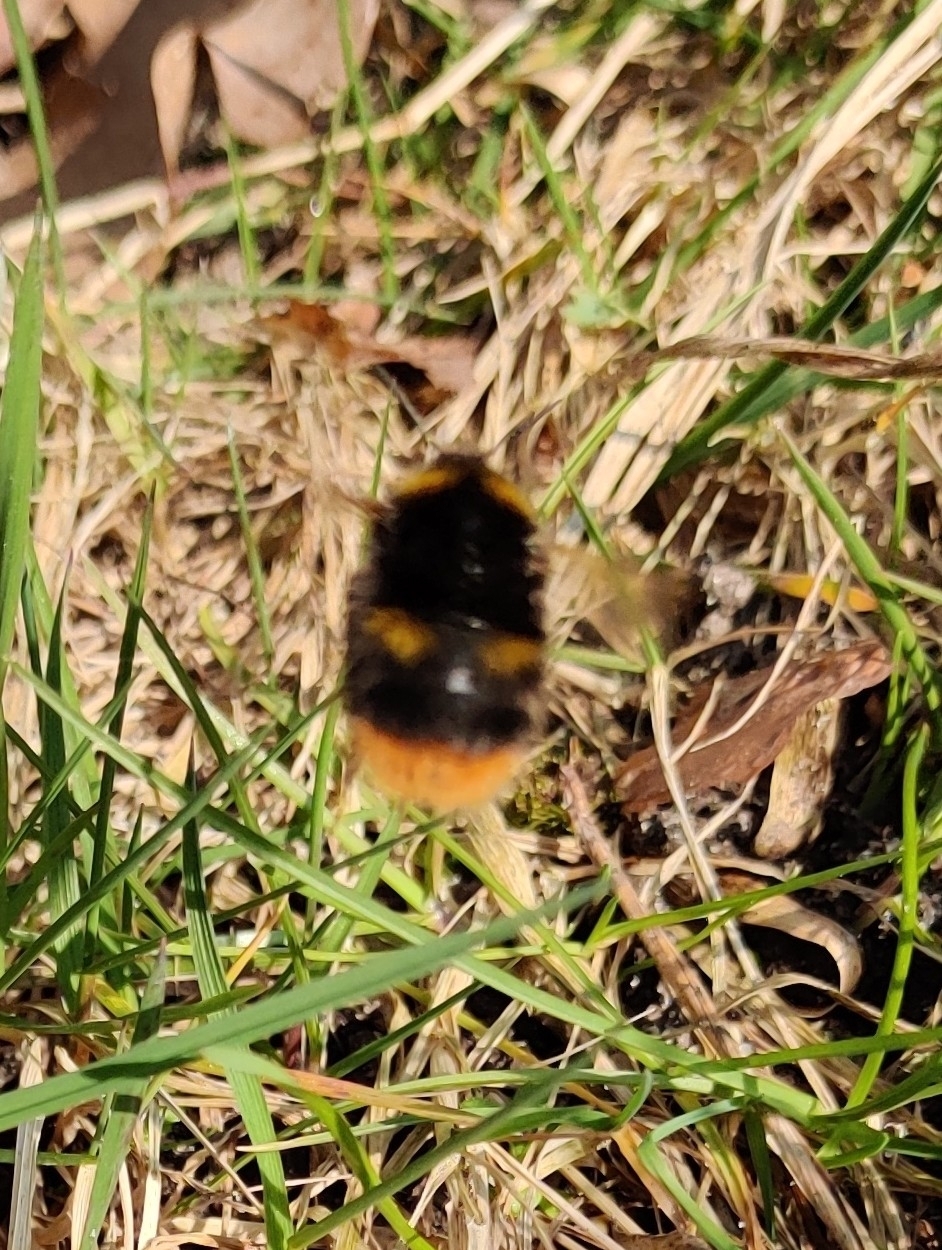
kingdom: Animalia
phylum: Arthropoda
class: Insecta
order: Hymenoptera
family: Apidae
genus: Bombus
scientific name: Bombus pratorum
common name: Early humble-bee
